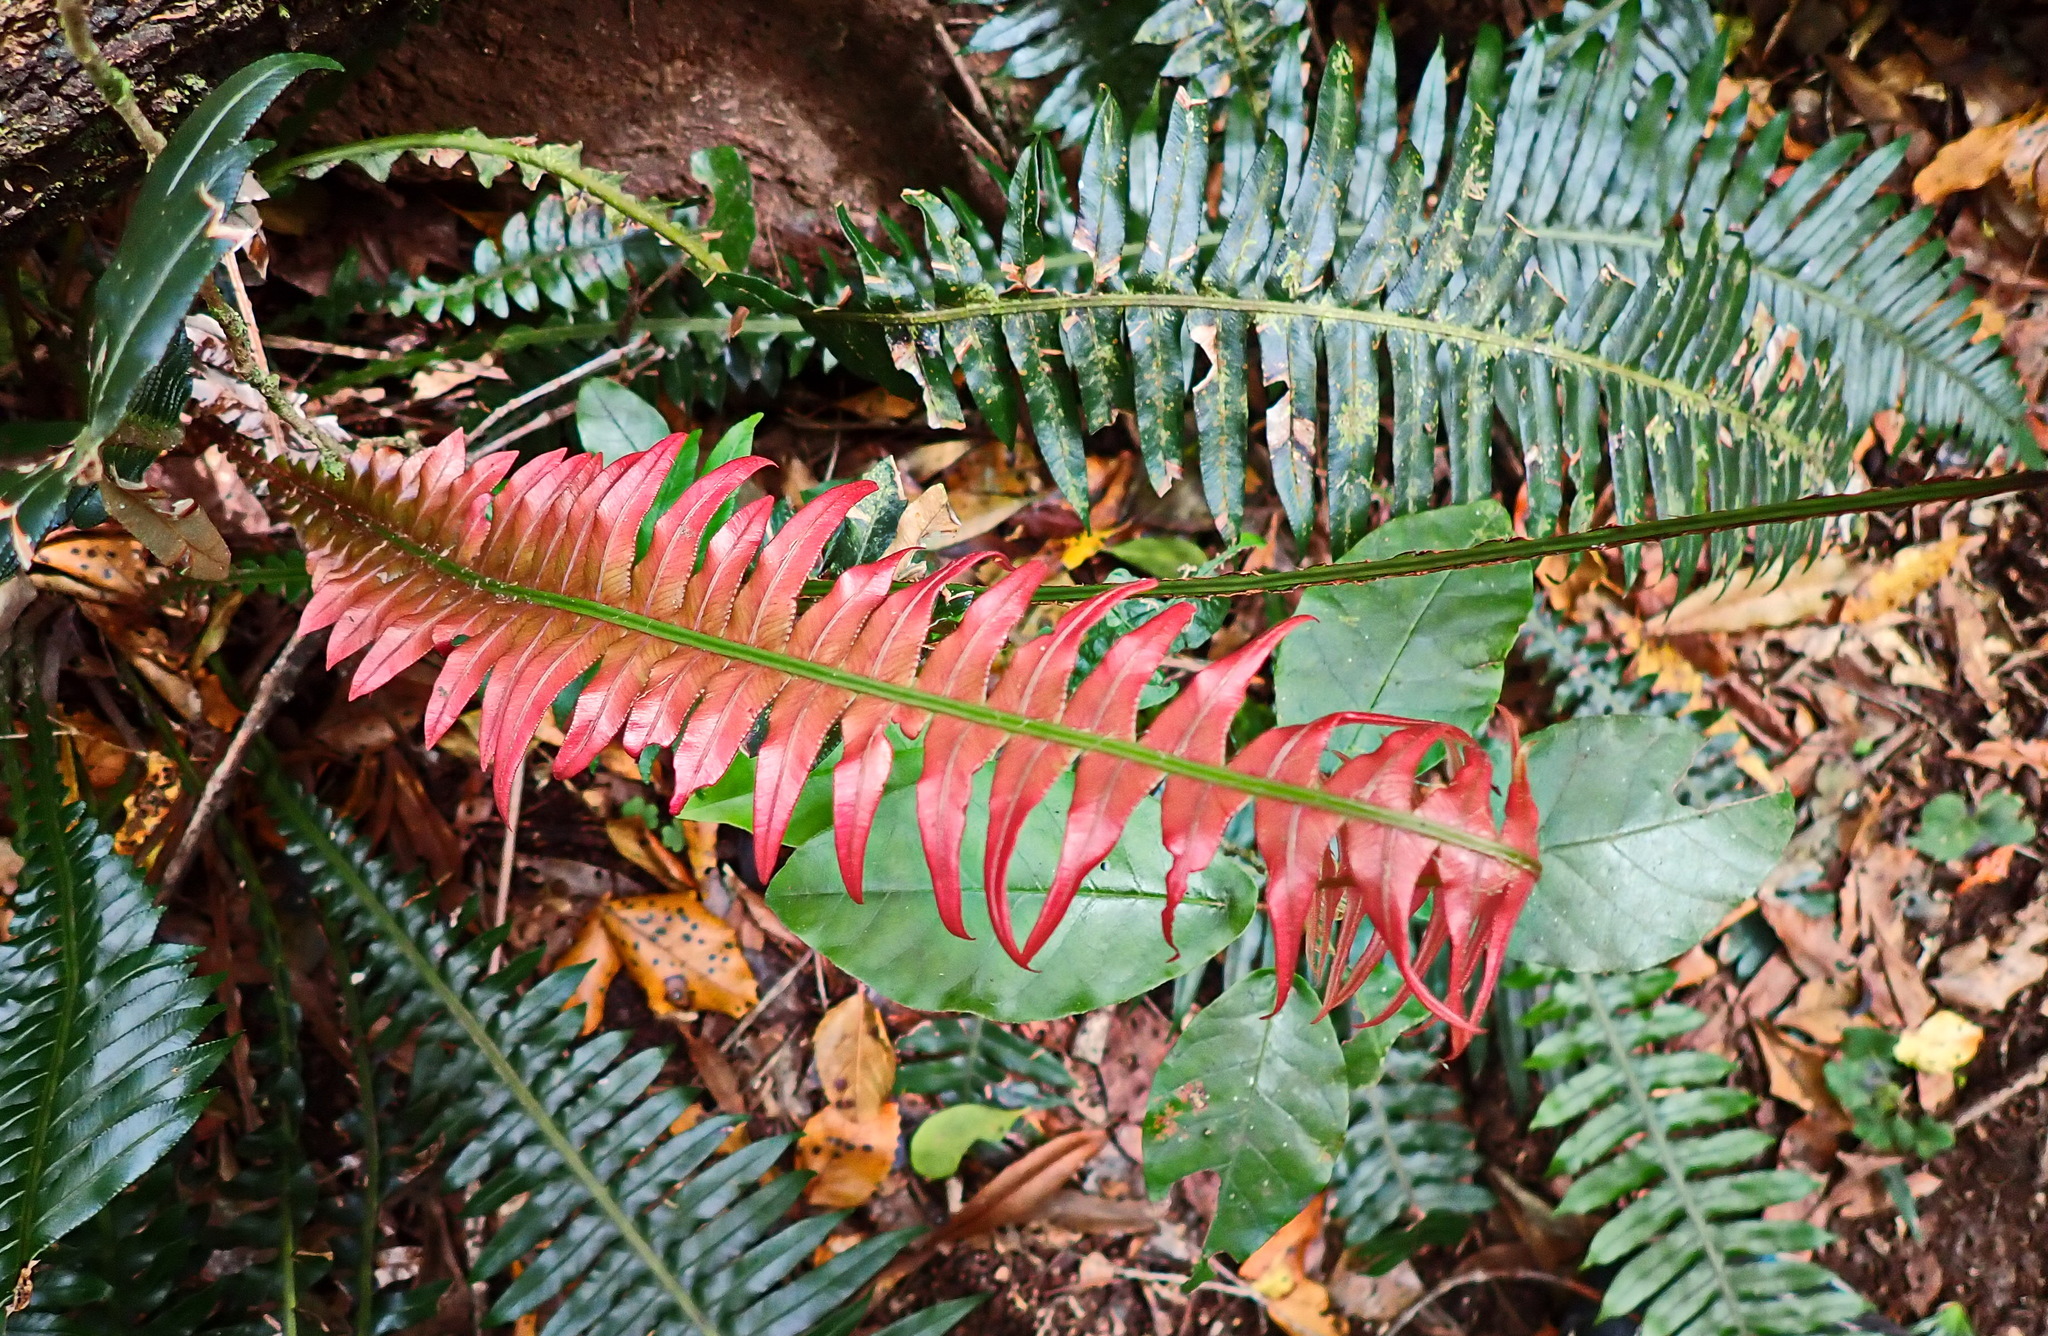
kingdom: Plantae
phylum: Tracheophyta
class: Polypodiopsida
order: Polypodiales
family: Blechnaceae
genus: Lomaridium
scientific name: Lomaridium attenuatum
